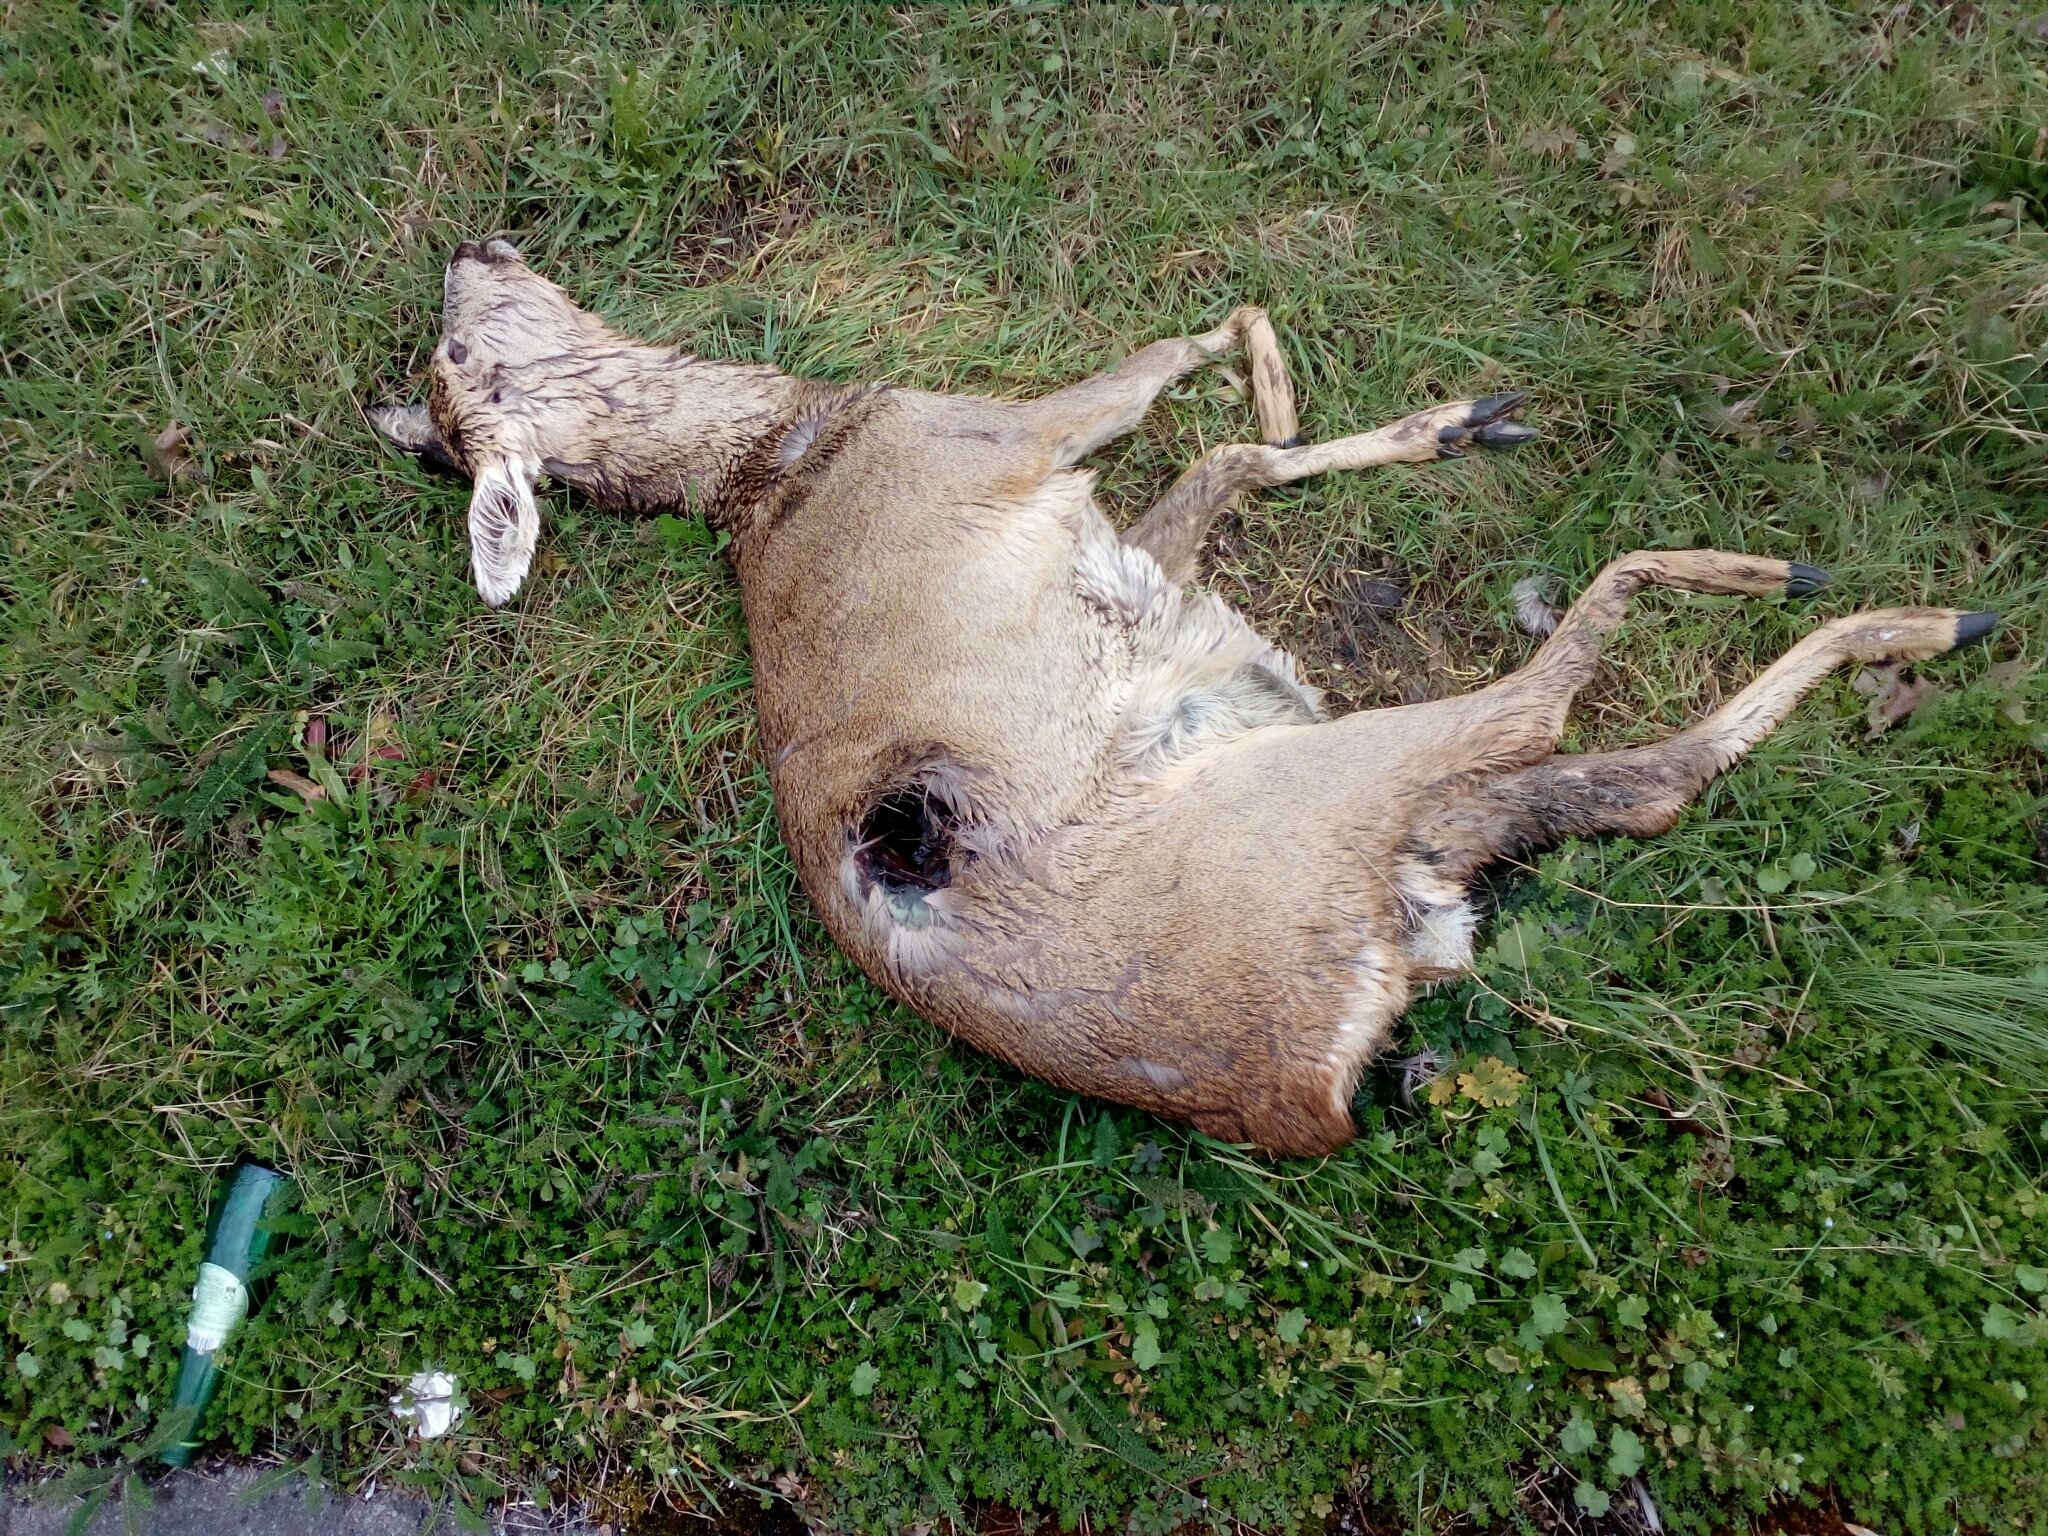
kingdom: Animalia
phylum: Chordata
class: Mammalia
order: Artiodactyla
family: Cervidae
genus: Capreolus
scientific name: Capreolus capreolus
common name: Western roe deer
